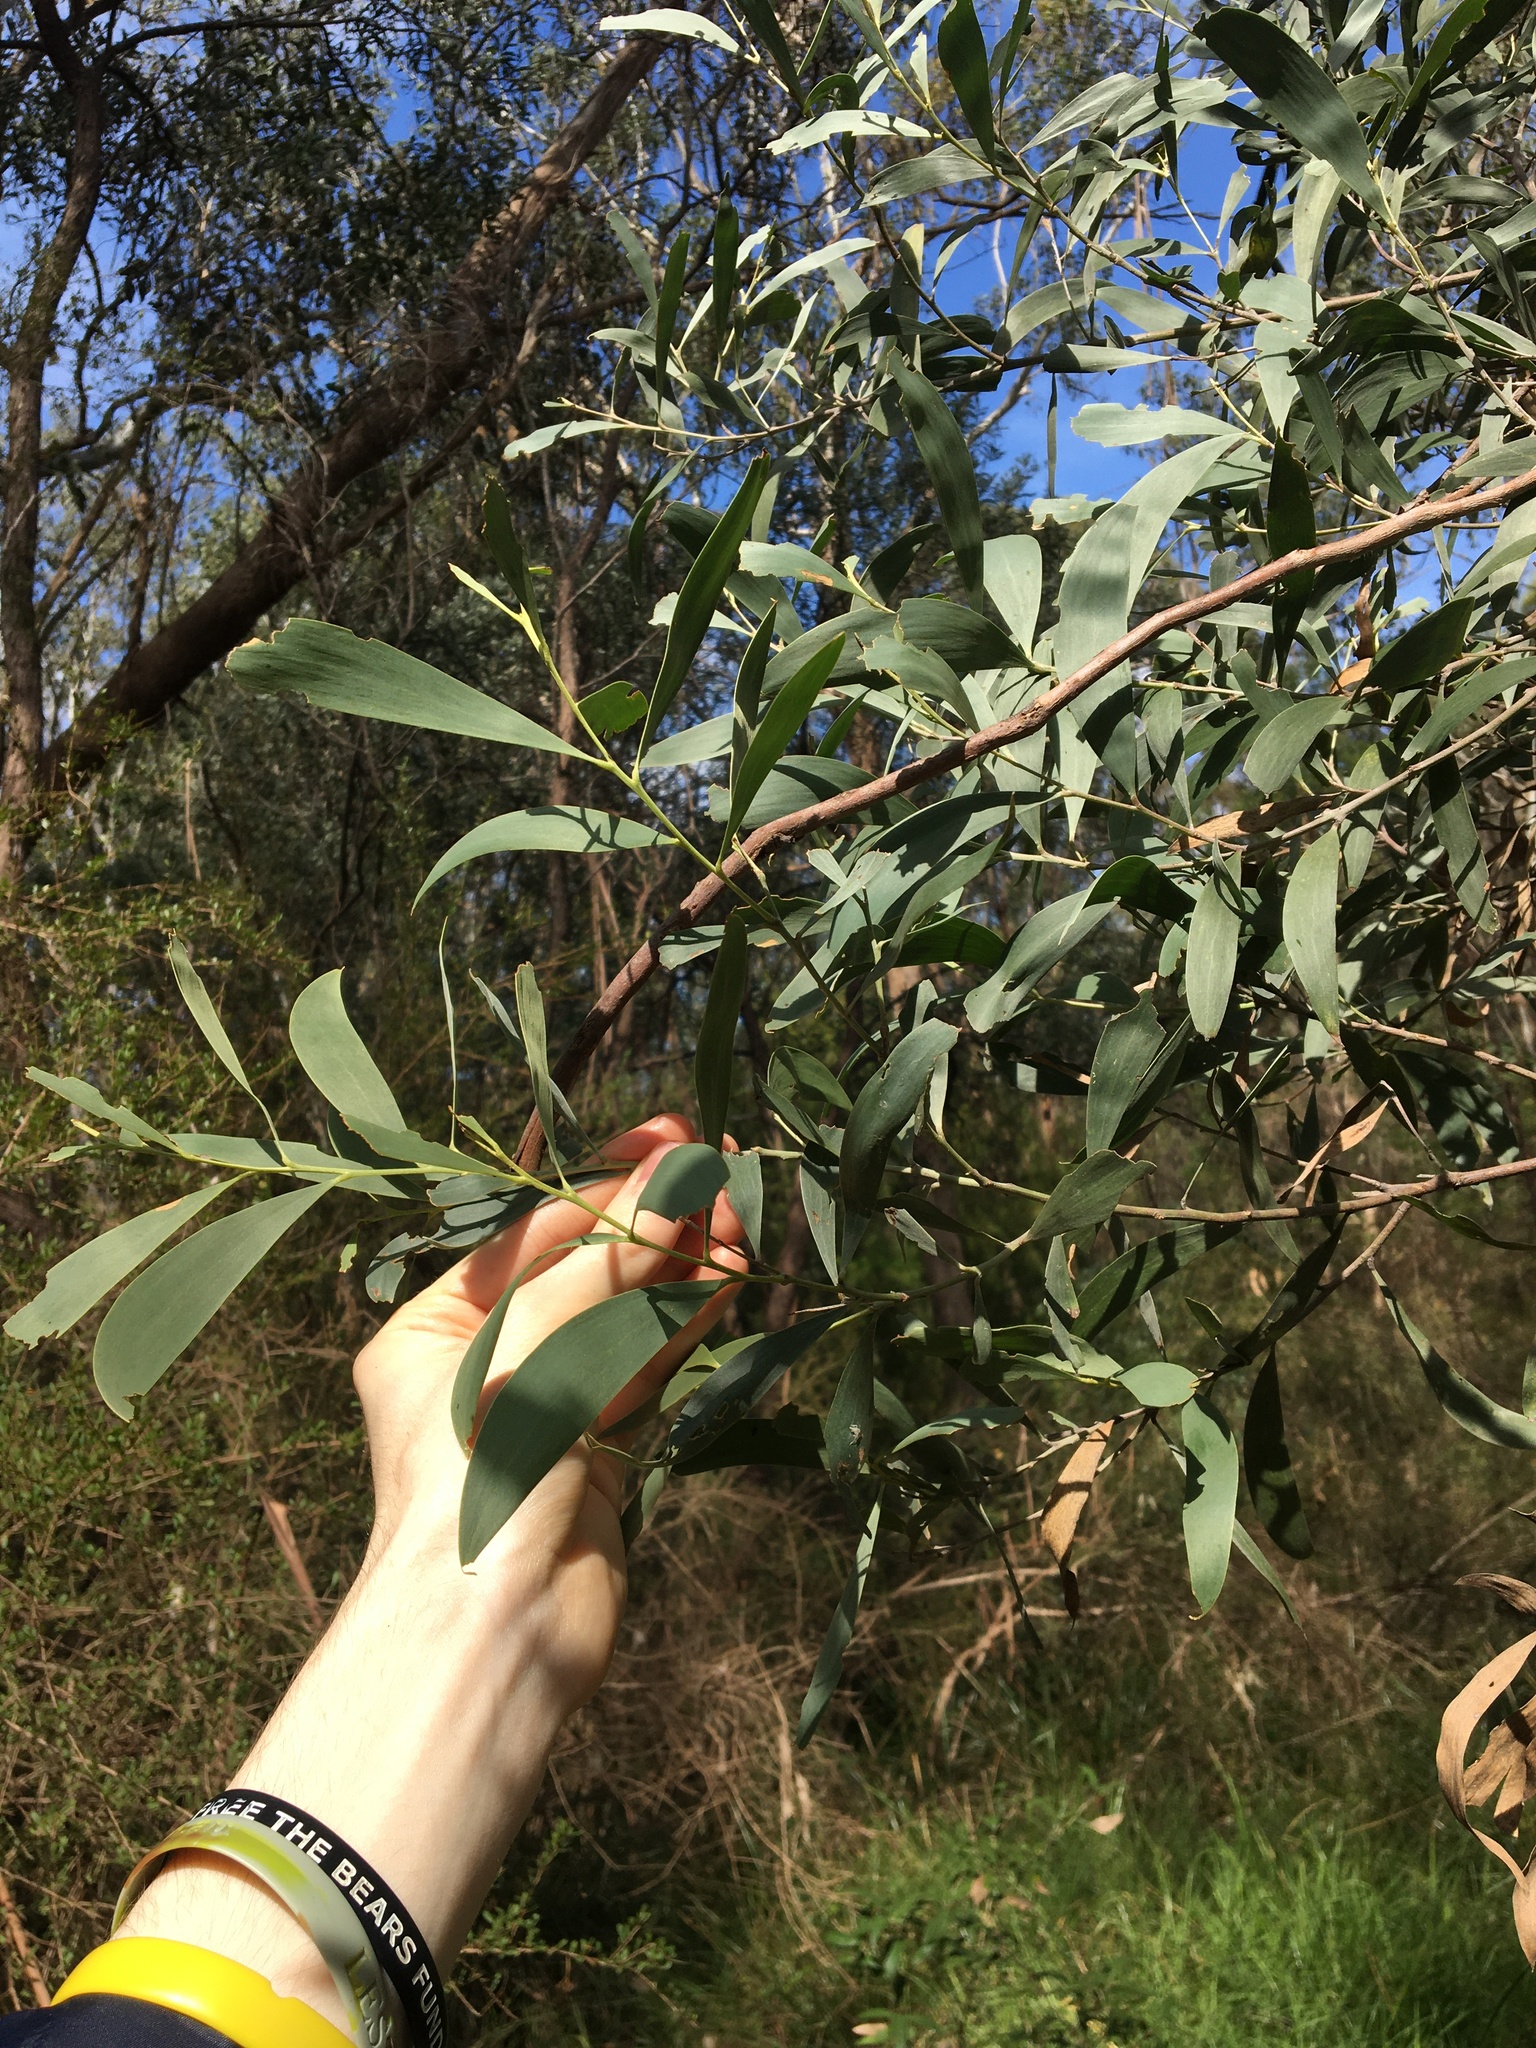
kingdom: Plantae
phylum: Tracheophyta
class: Magnoliopsida
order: Fabales
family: Fabaceae
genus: Acacia
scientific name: Acacia binervia
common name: Coast myall
